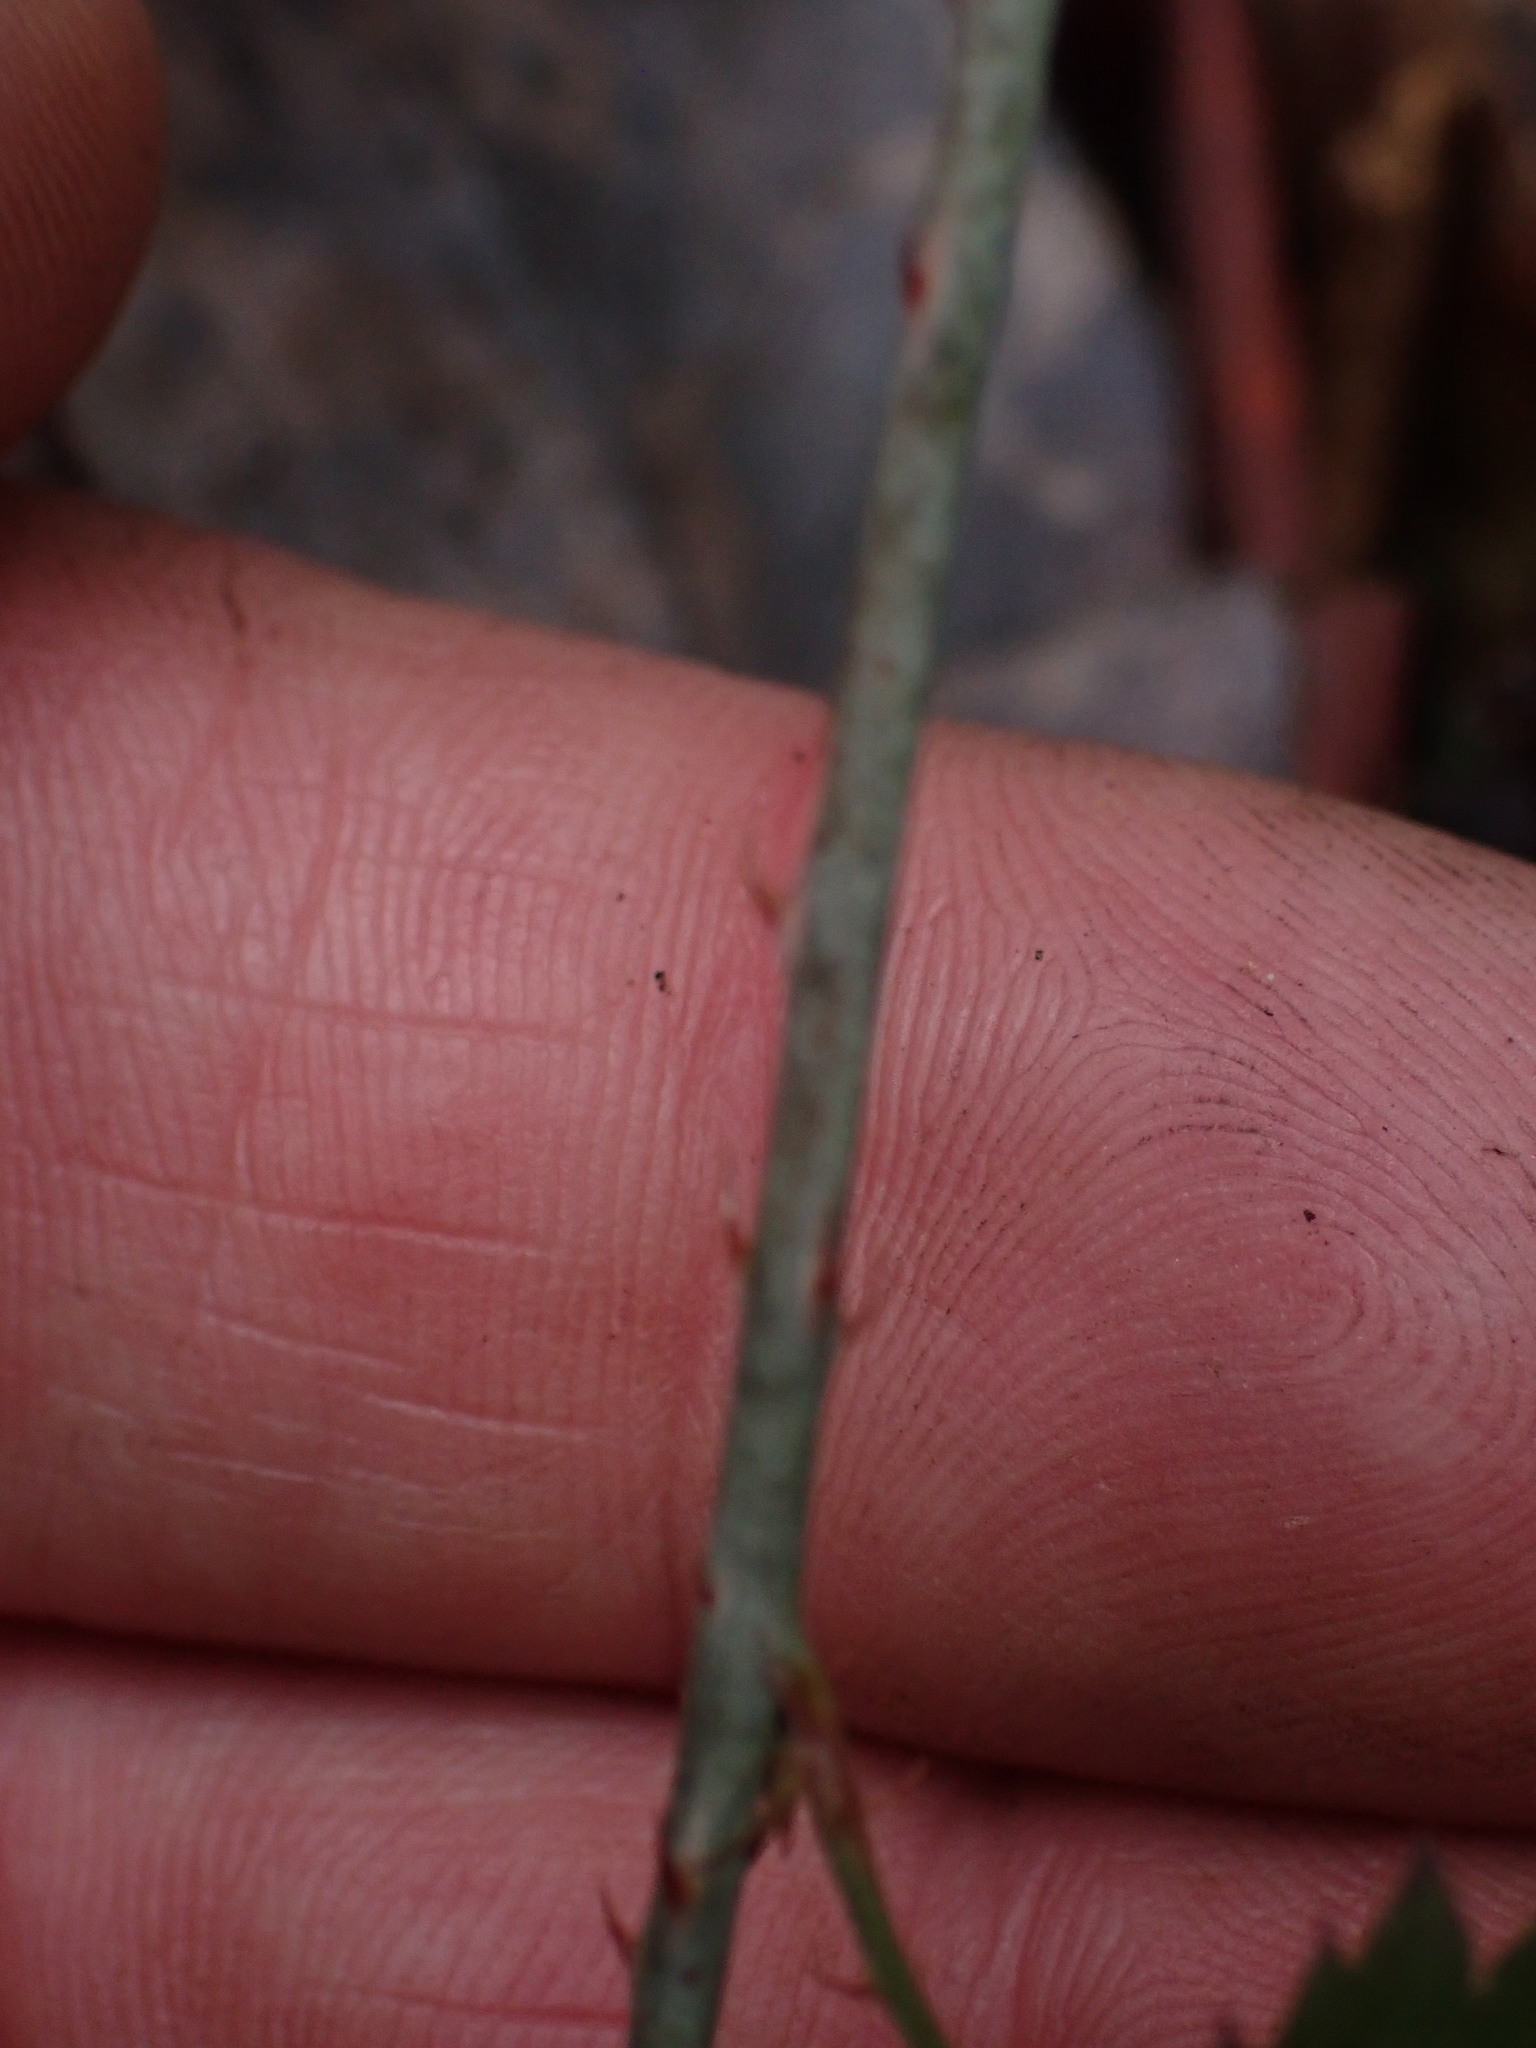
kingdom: Plantae
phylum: Tracheophyta
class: Magnoliopsida
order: Rosales
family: Rosaceae
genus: Rubus
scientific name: Rubus ursinus
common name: Pacific blackberry
